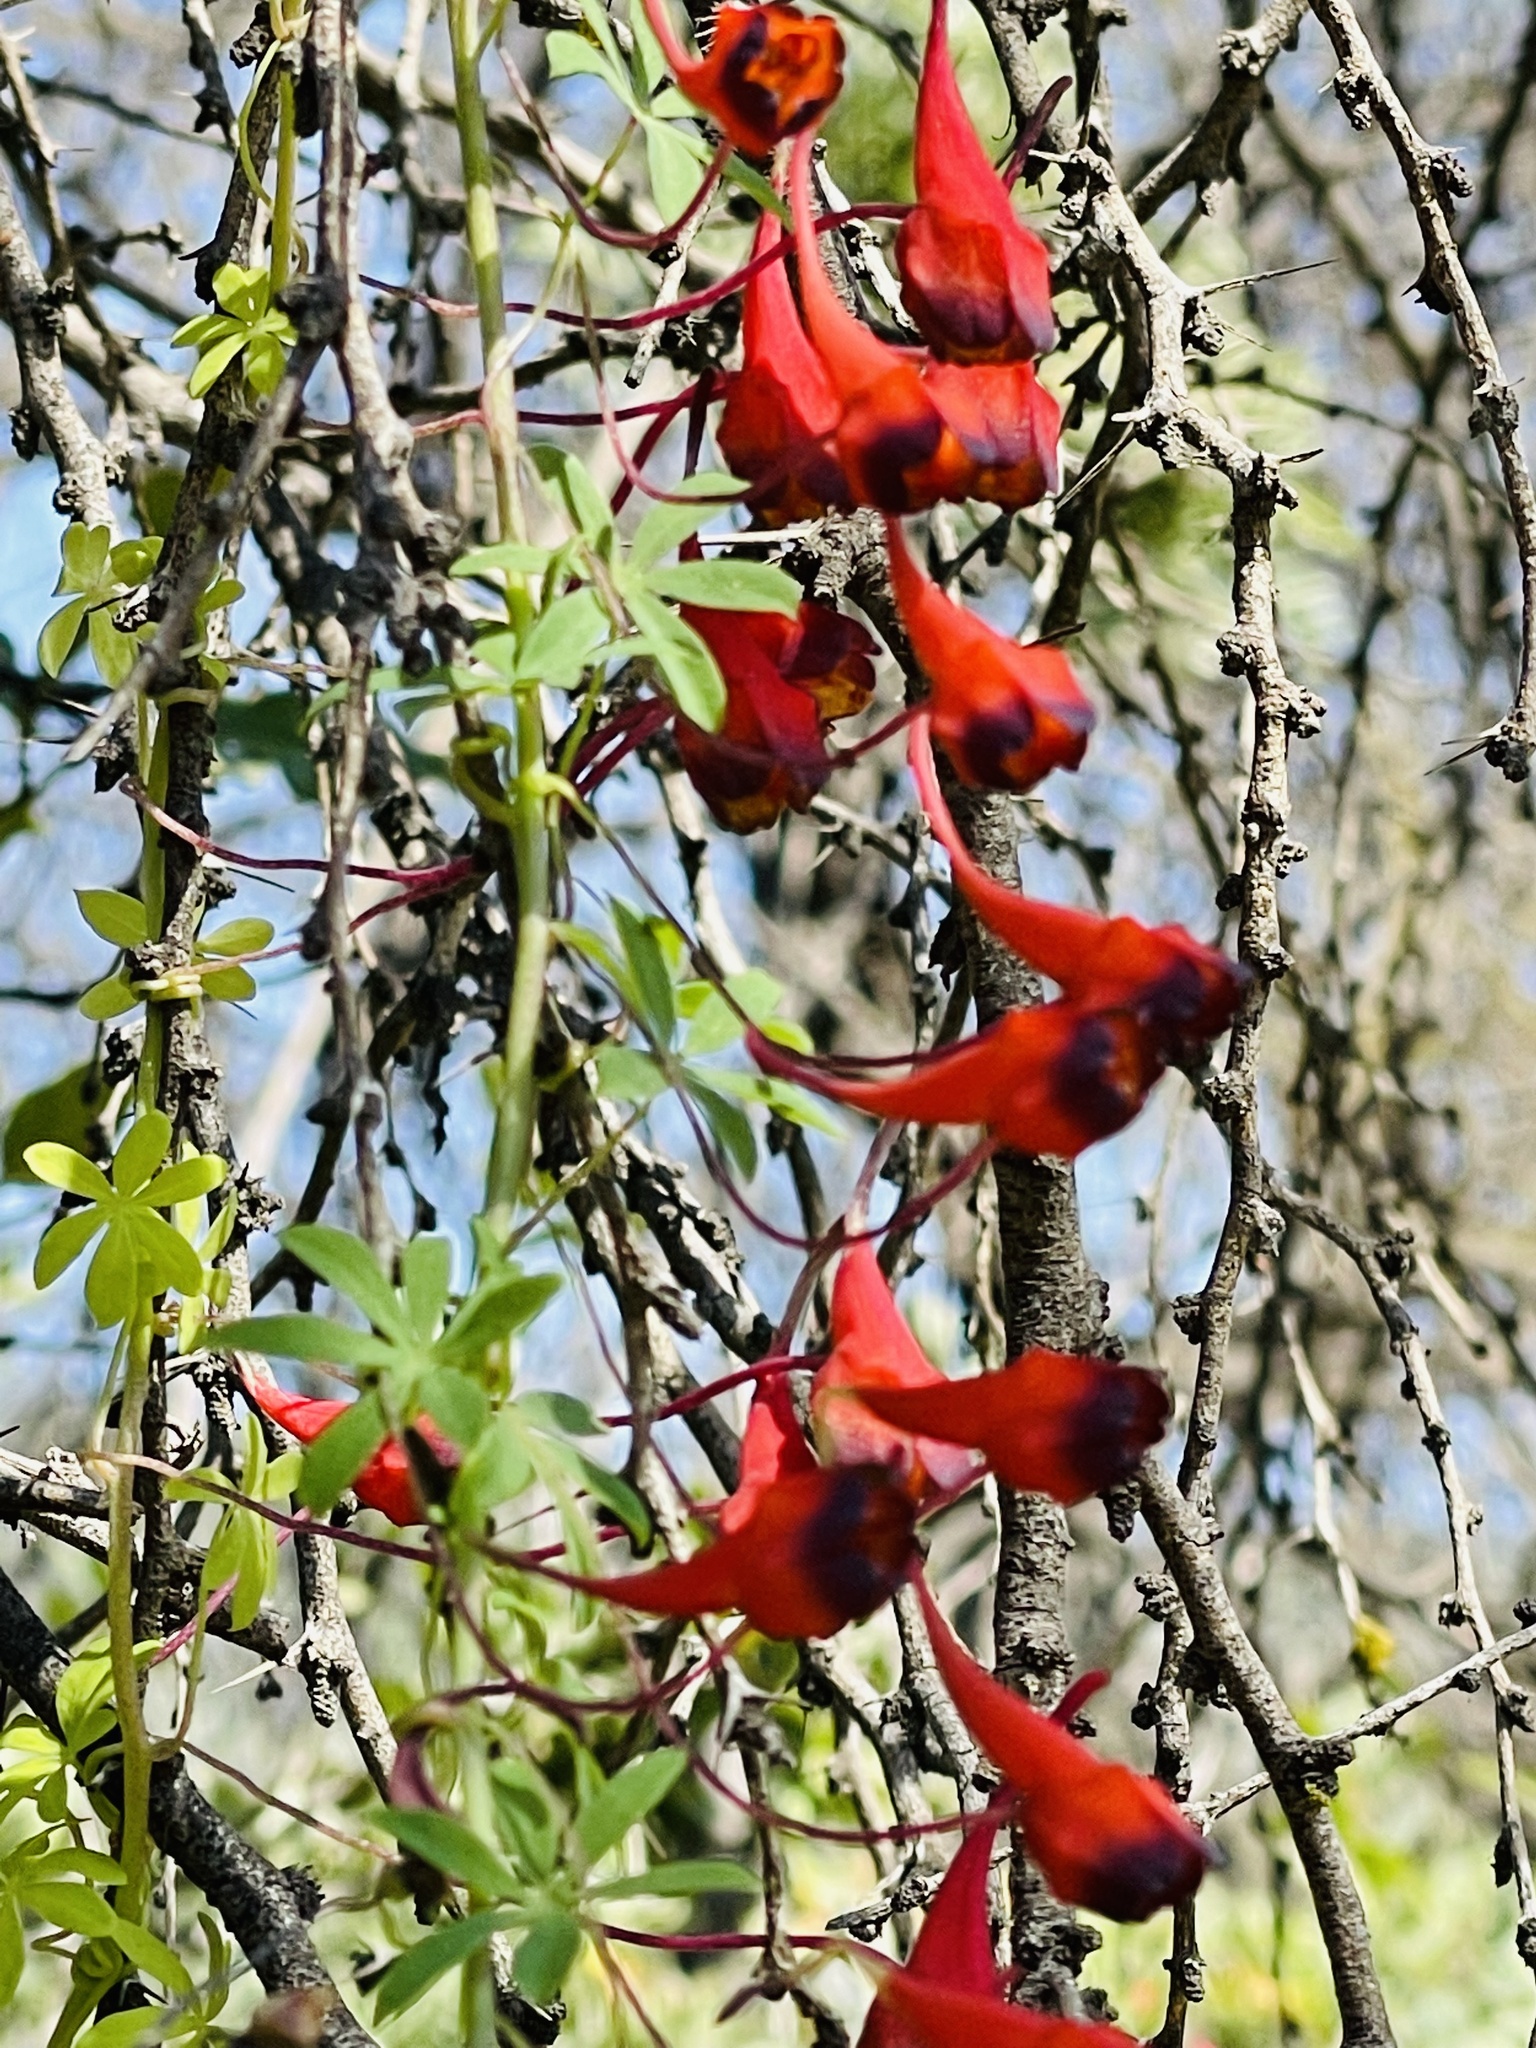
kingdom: Plantae
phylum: Tracheophyta
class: Magnoliopsida
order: Brassicales
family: Tropaeolaceae
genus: Tropaeolum
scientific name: Tropaeolum tricolor
